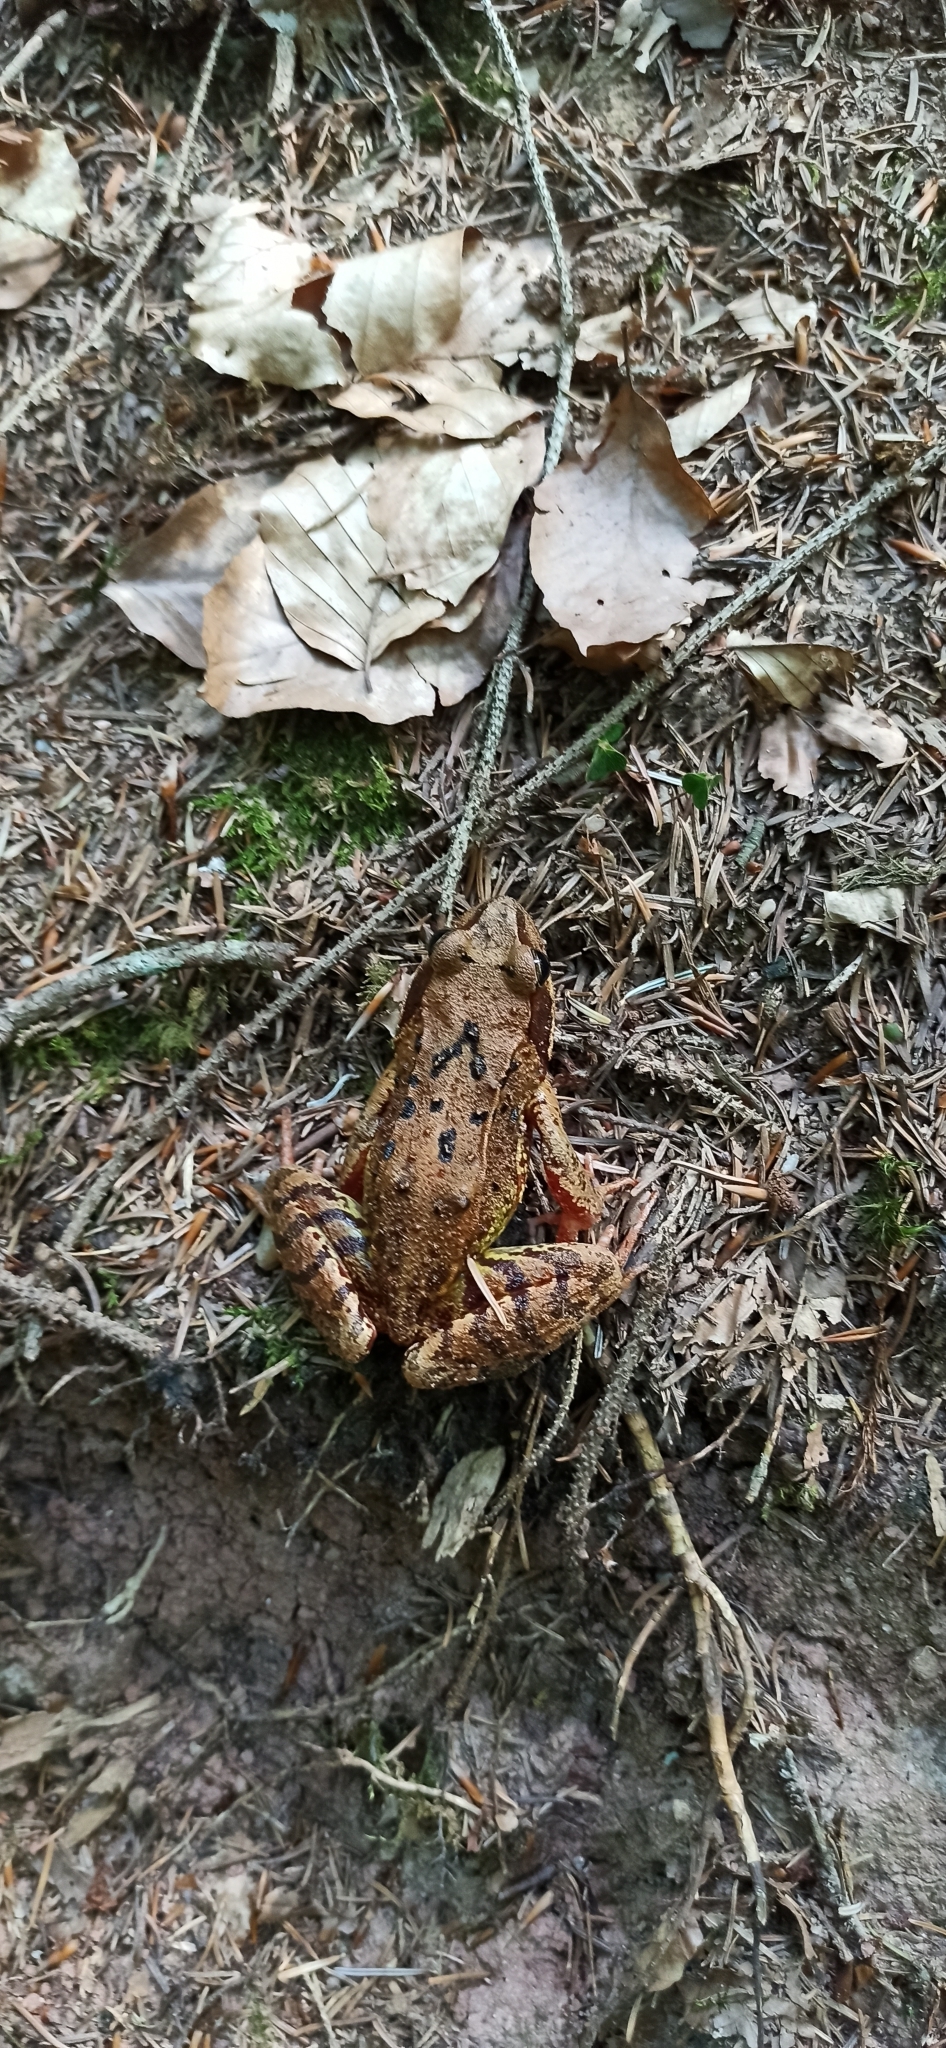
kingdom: Animalia
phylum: Chordata
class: Amphibia
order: Anura
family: Ranidae
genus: Rana
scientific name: Rana temporaria
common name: Common frog
